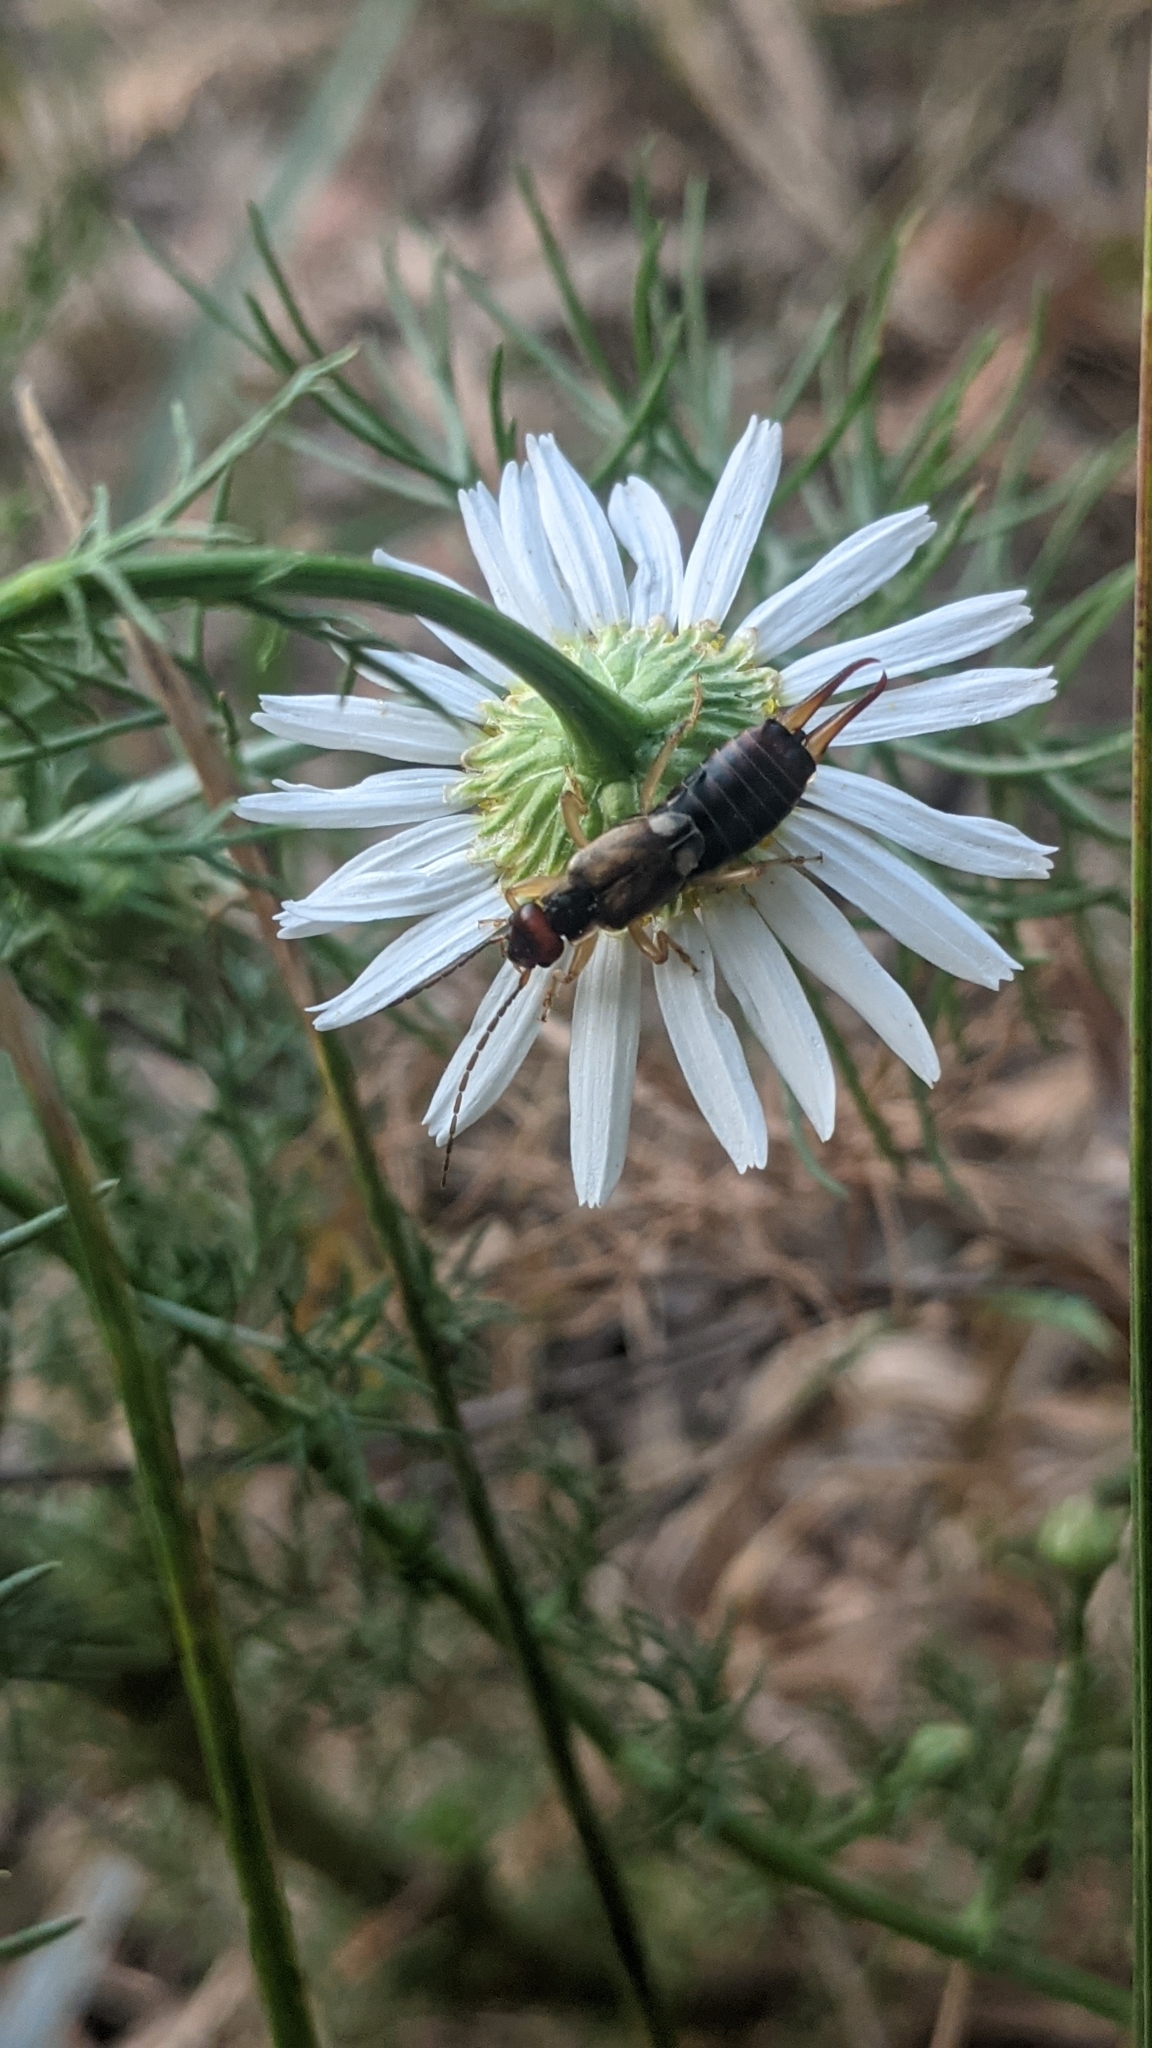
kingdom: Animalia
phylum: Arthropoda
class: Insecta
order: Dermaptera
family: Forficulidae
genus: Forficula
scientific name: Forficula
